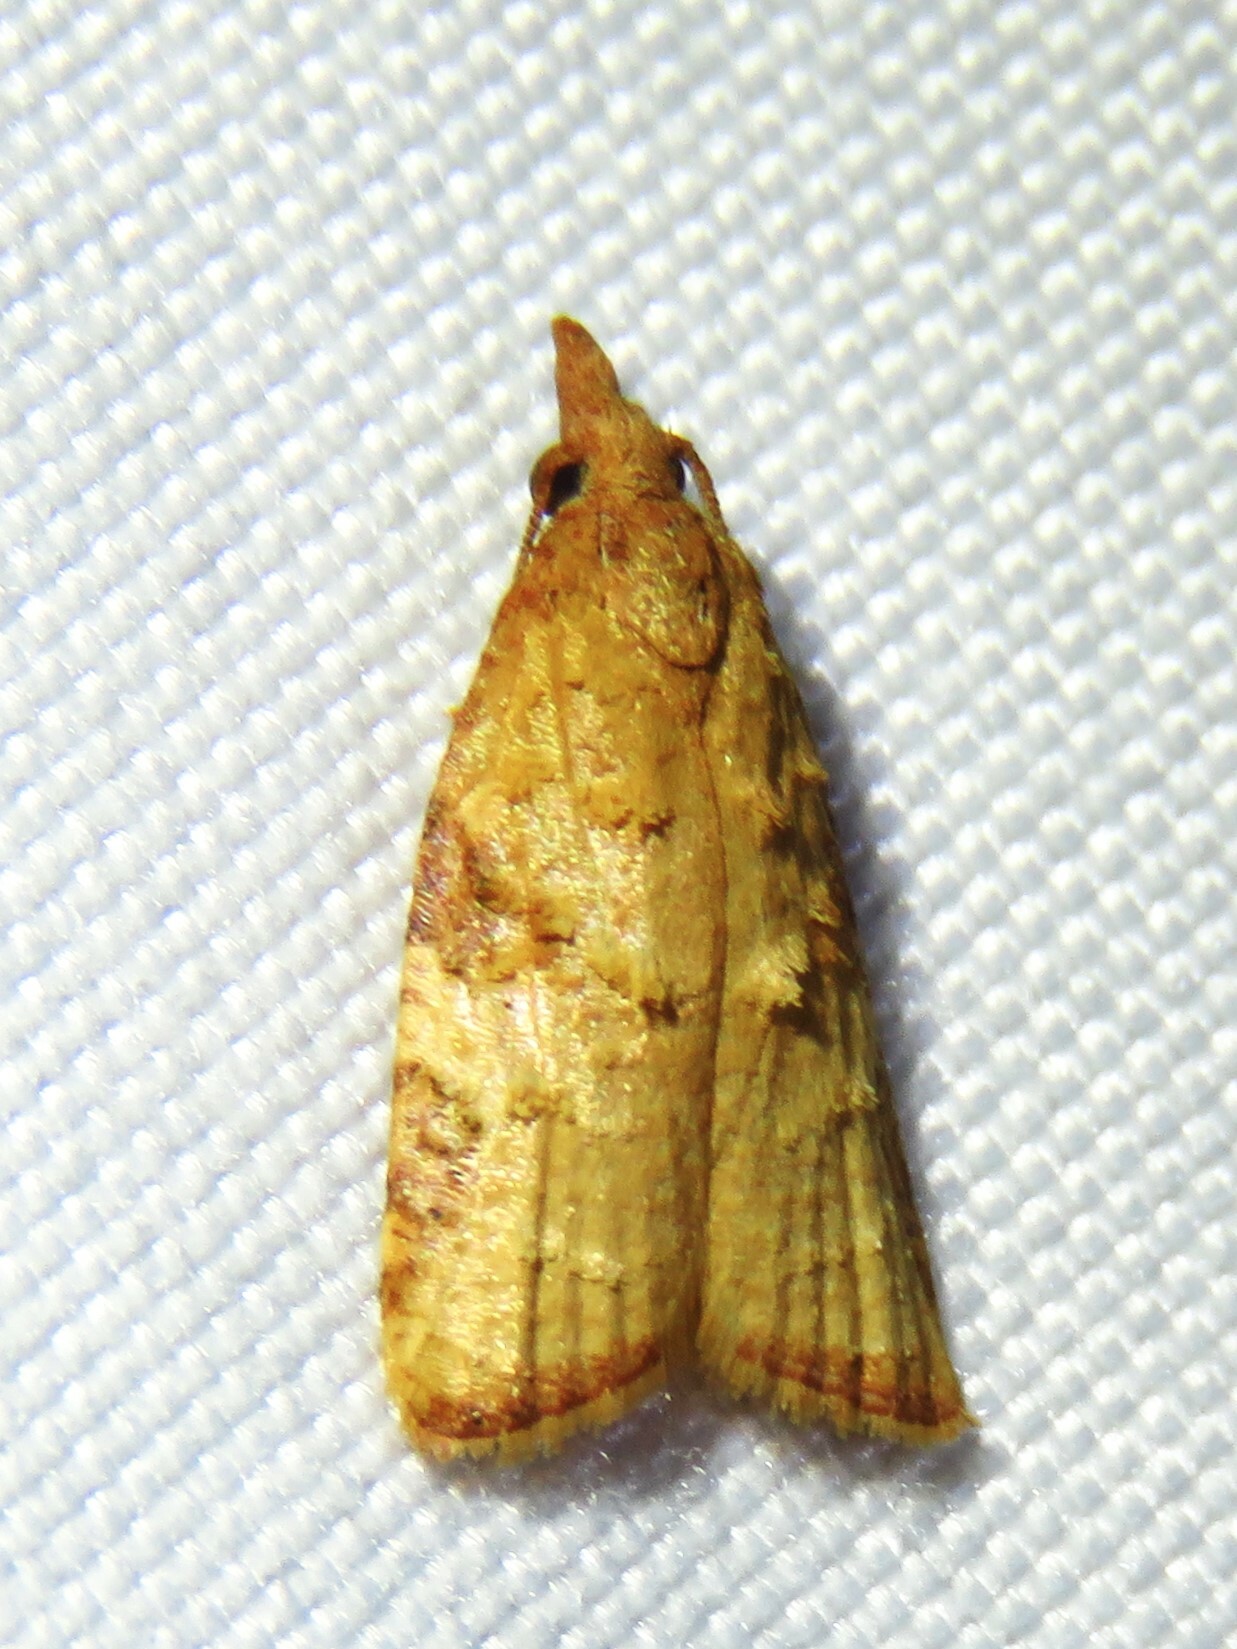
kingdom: Animalia
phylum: Arthropoda
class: Insecta
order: Lepidoptera
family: Tortricidae
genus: Platynota
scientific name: Platynota texana
